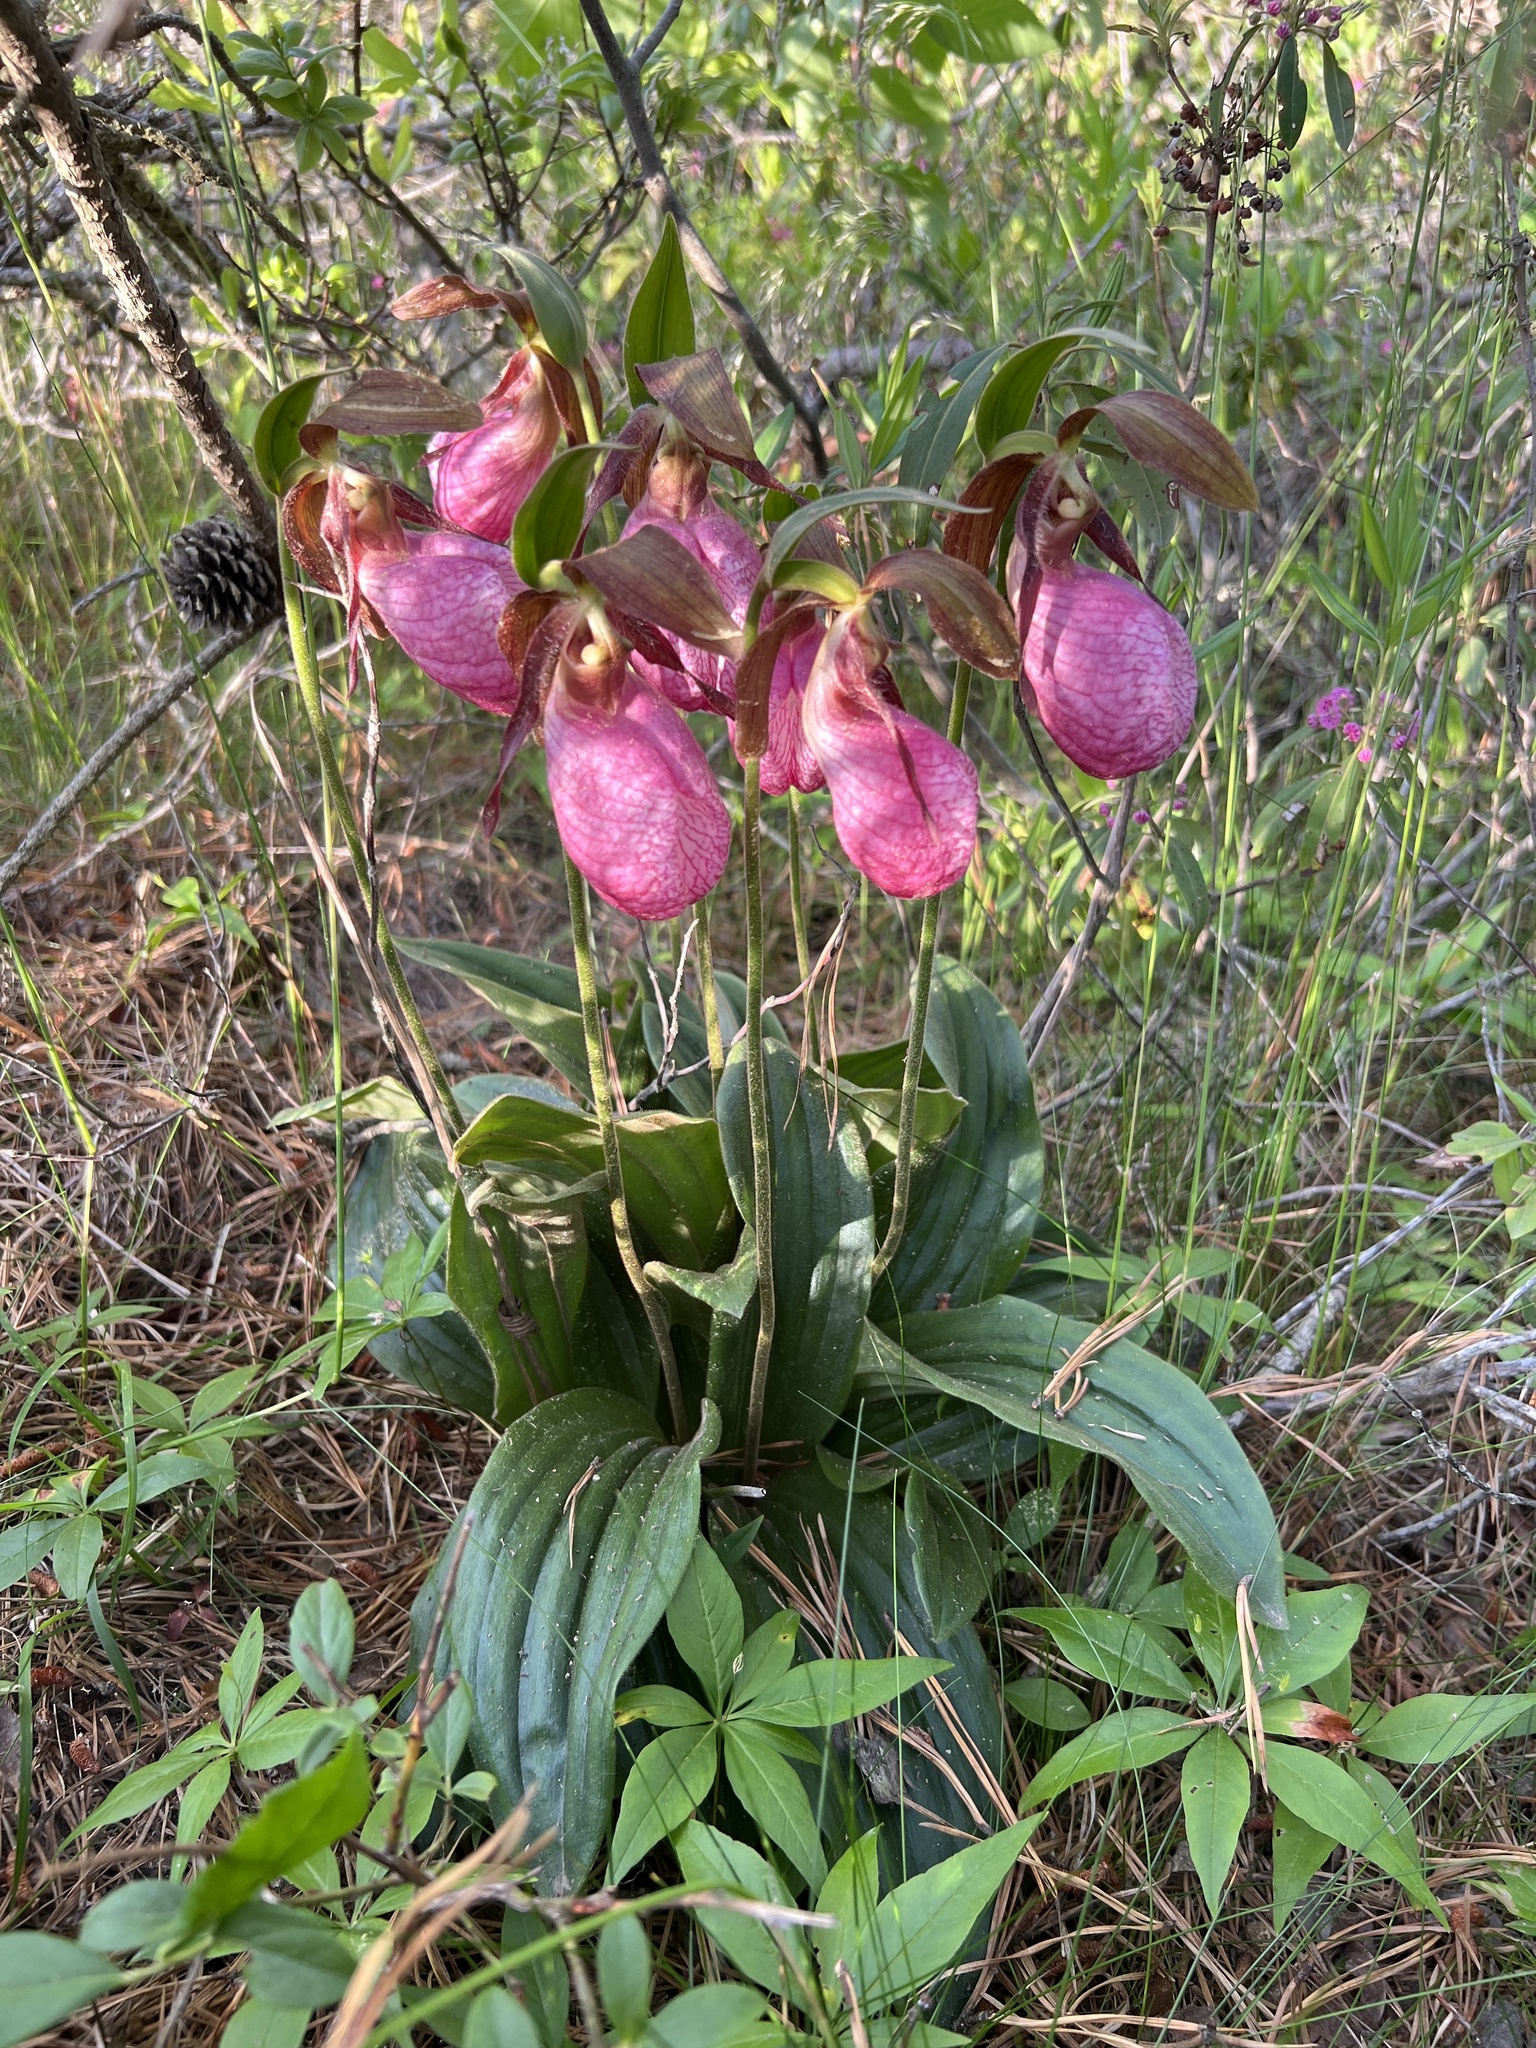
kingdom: Plantae
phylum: Tracheophyta
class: Liliopsida
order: Asparagales
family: Orchidaceae
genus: Cypripedium
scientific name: Cypripedium acaule
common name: Pink lady's-slipper
